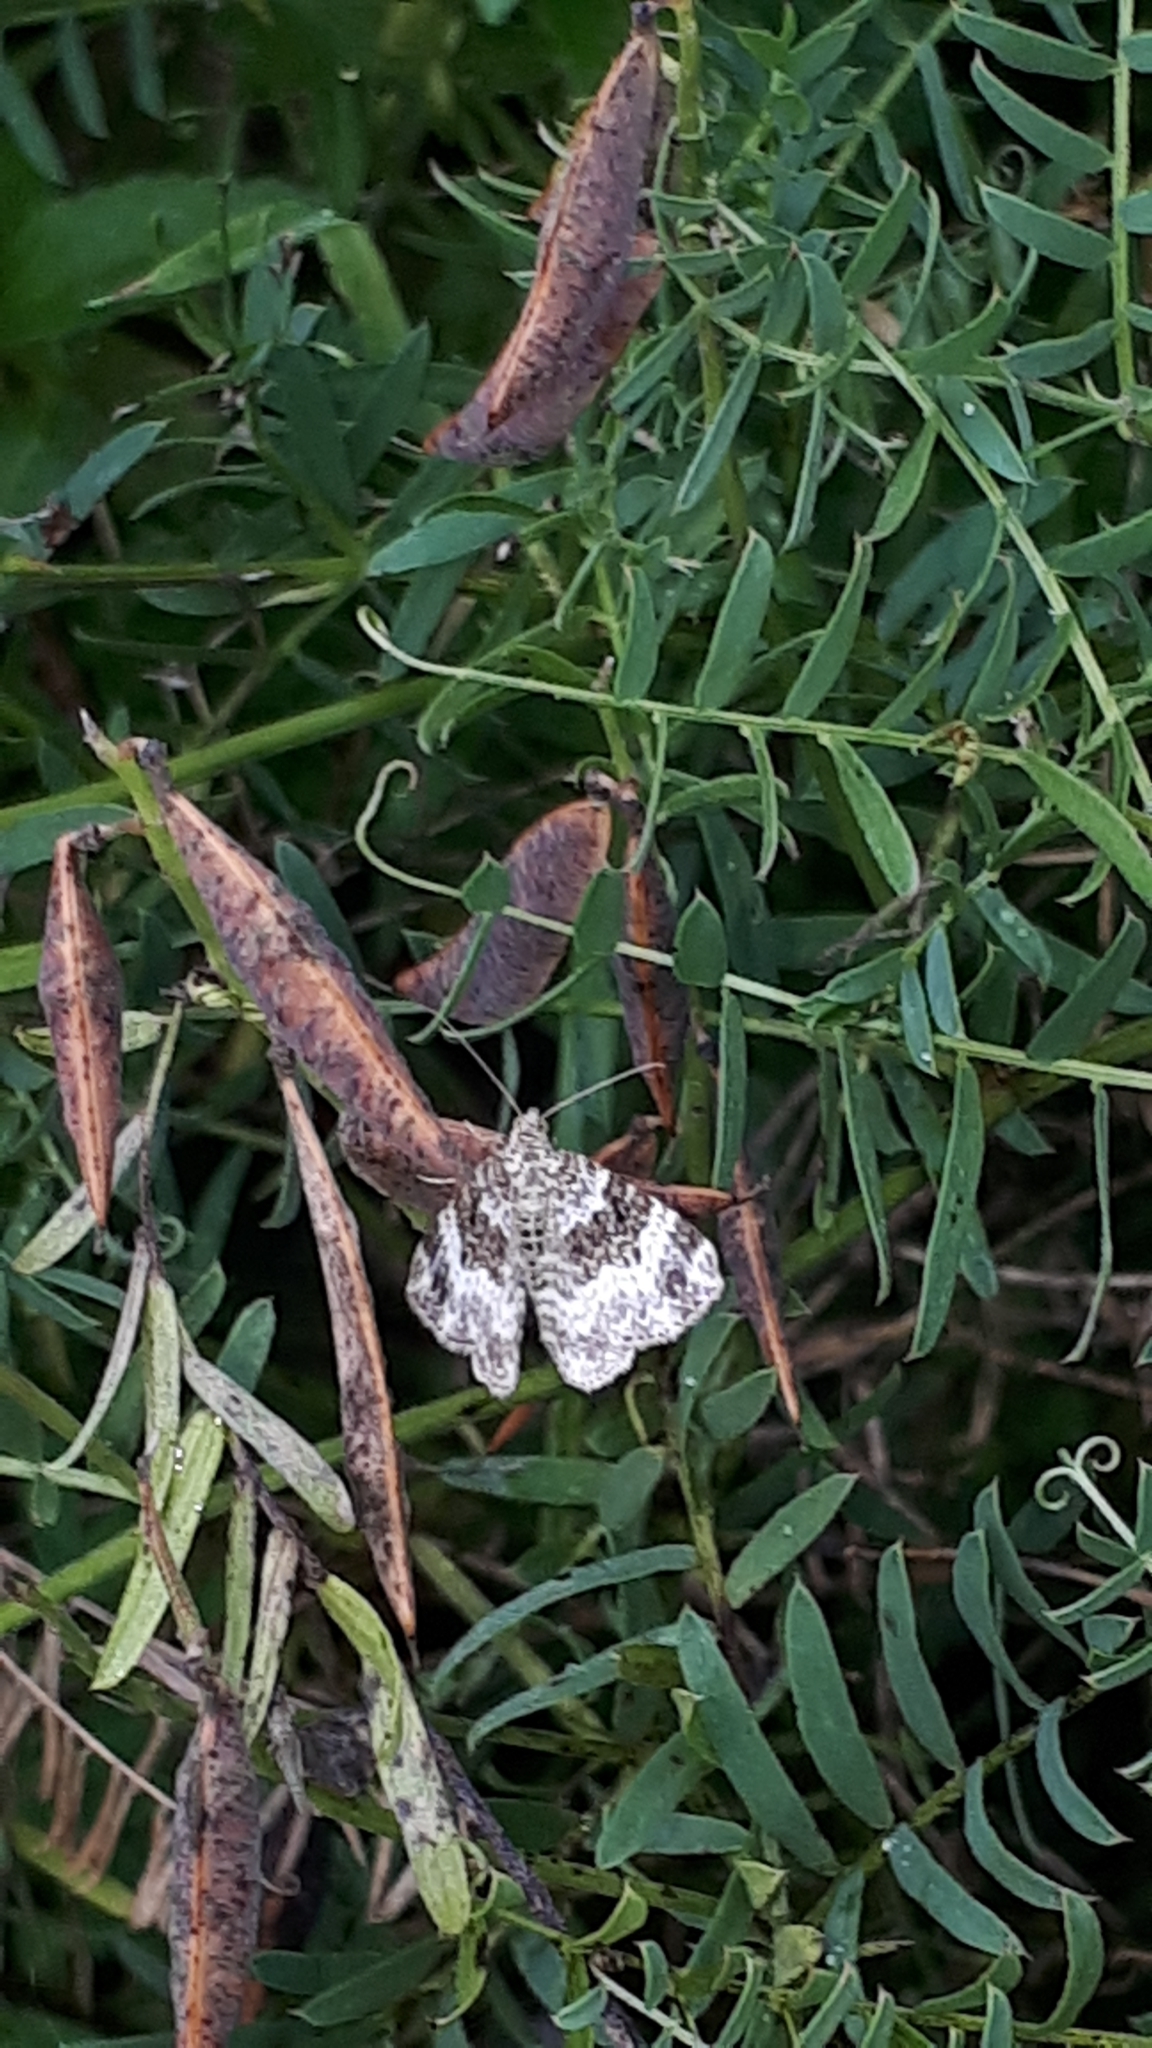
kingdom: Animalia
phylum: Arthropoda
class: Insecta
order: Lepidoptera
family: Geometridae
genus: Epirrhoe
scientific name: Epirrhoe alternata
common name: Common carpet
